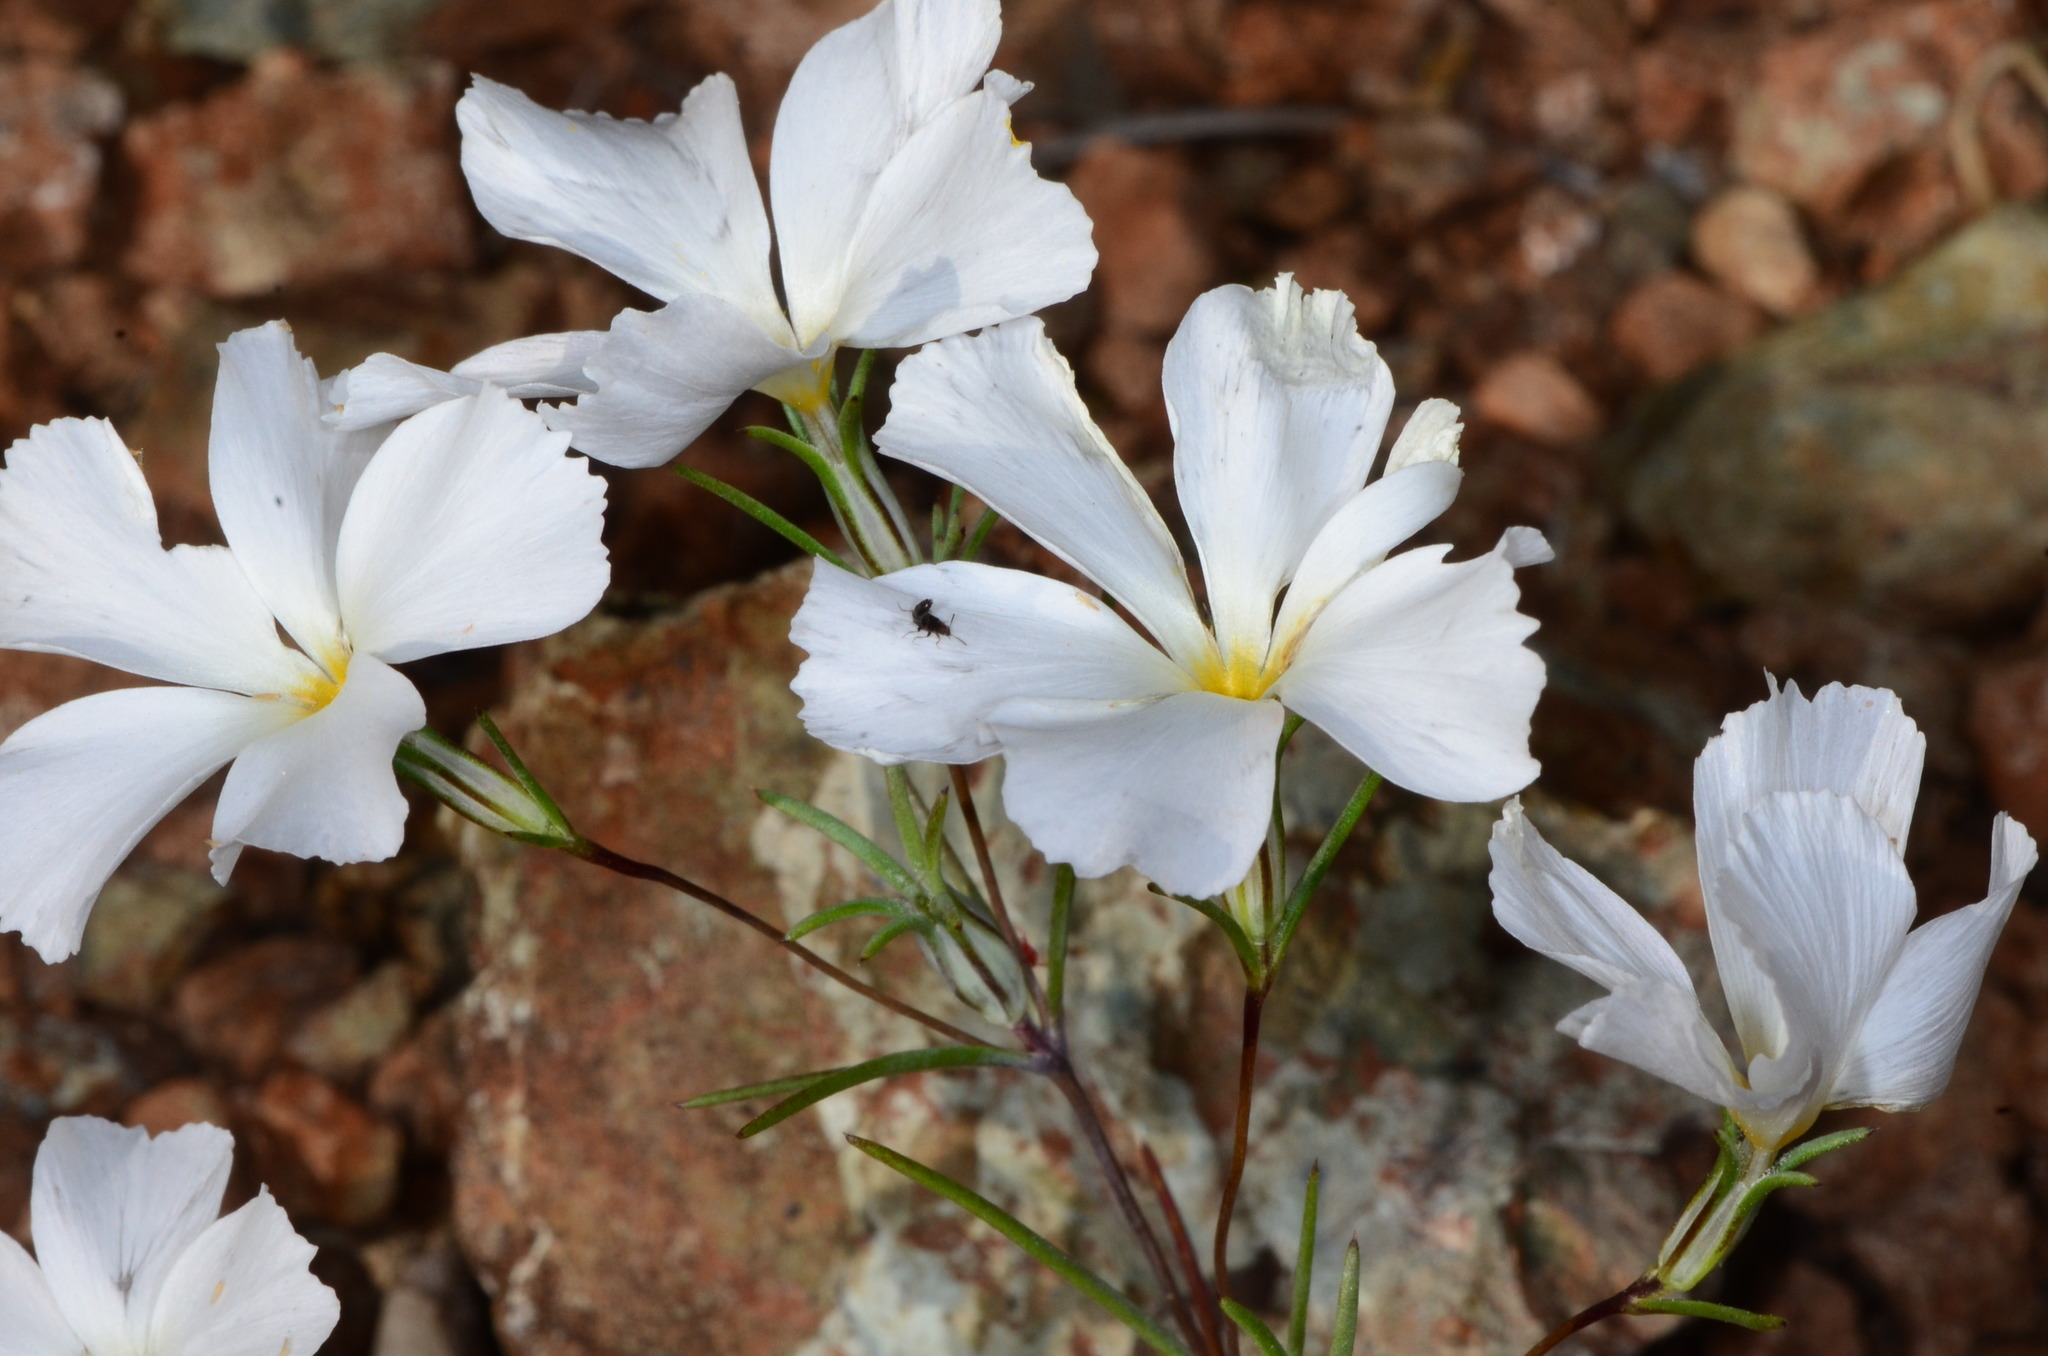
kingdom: Plantae
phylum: Tracheophyta
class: Magnoliopsida
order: Ericales
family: Polemoniaceae
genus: Linanthus
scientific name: Linanthus dichotomus
